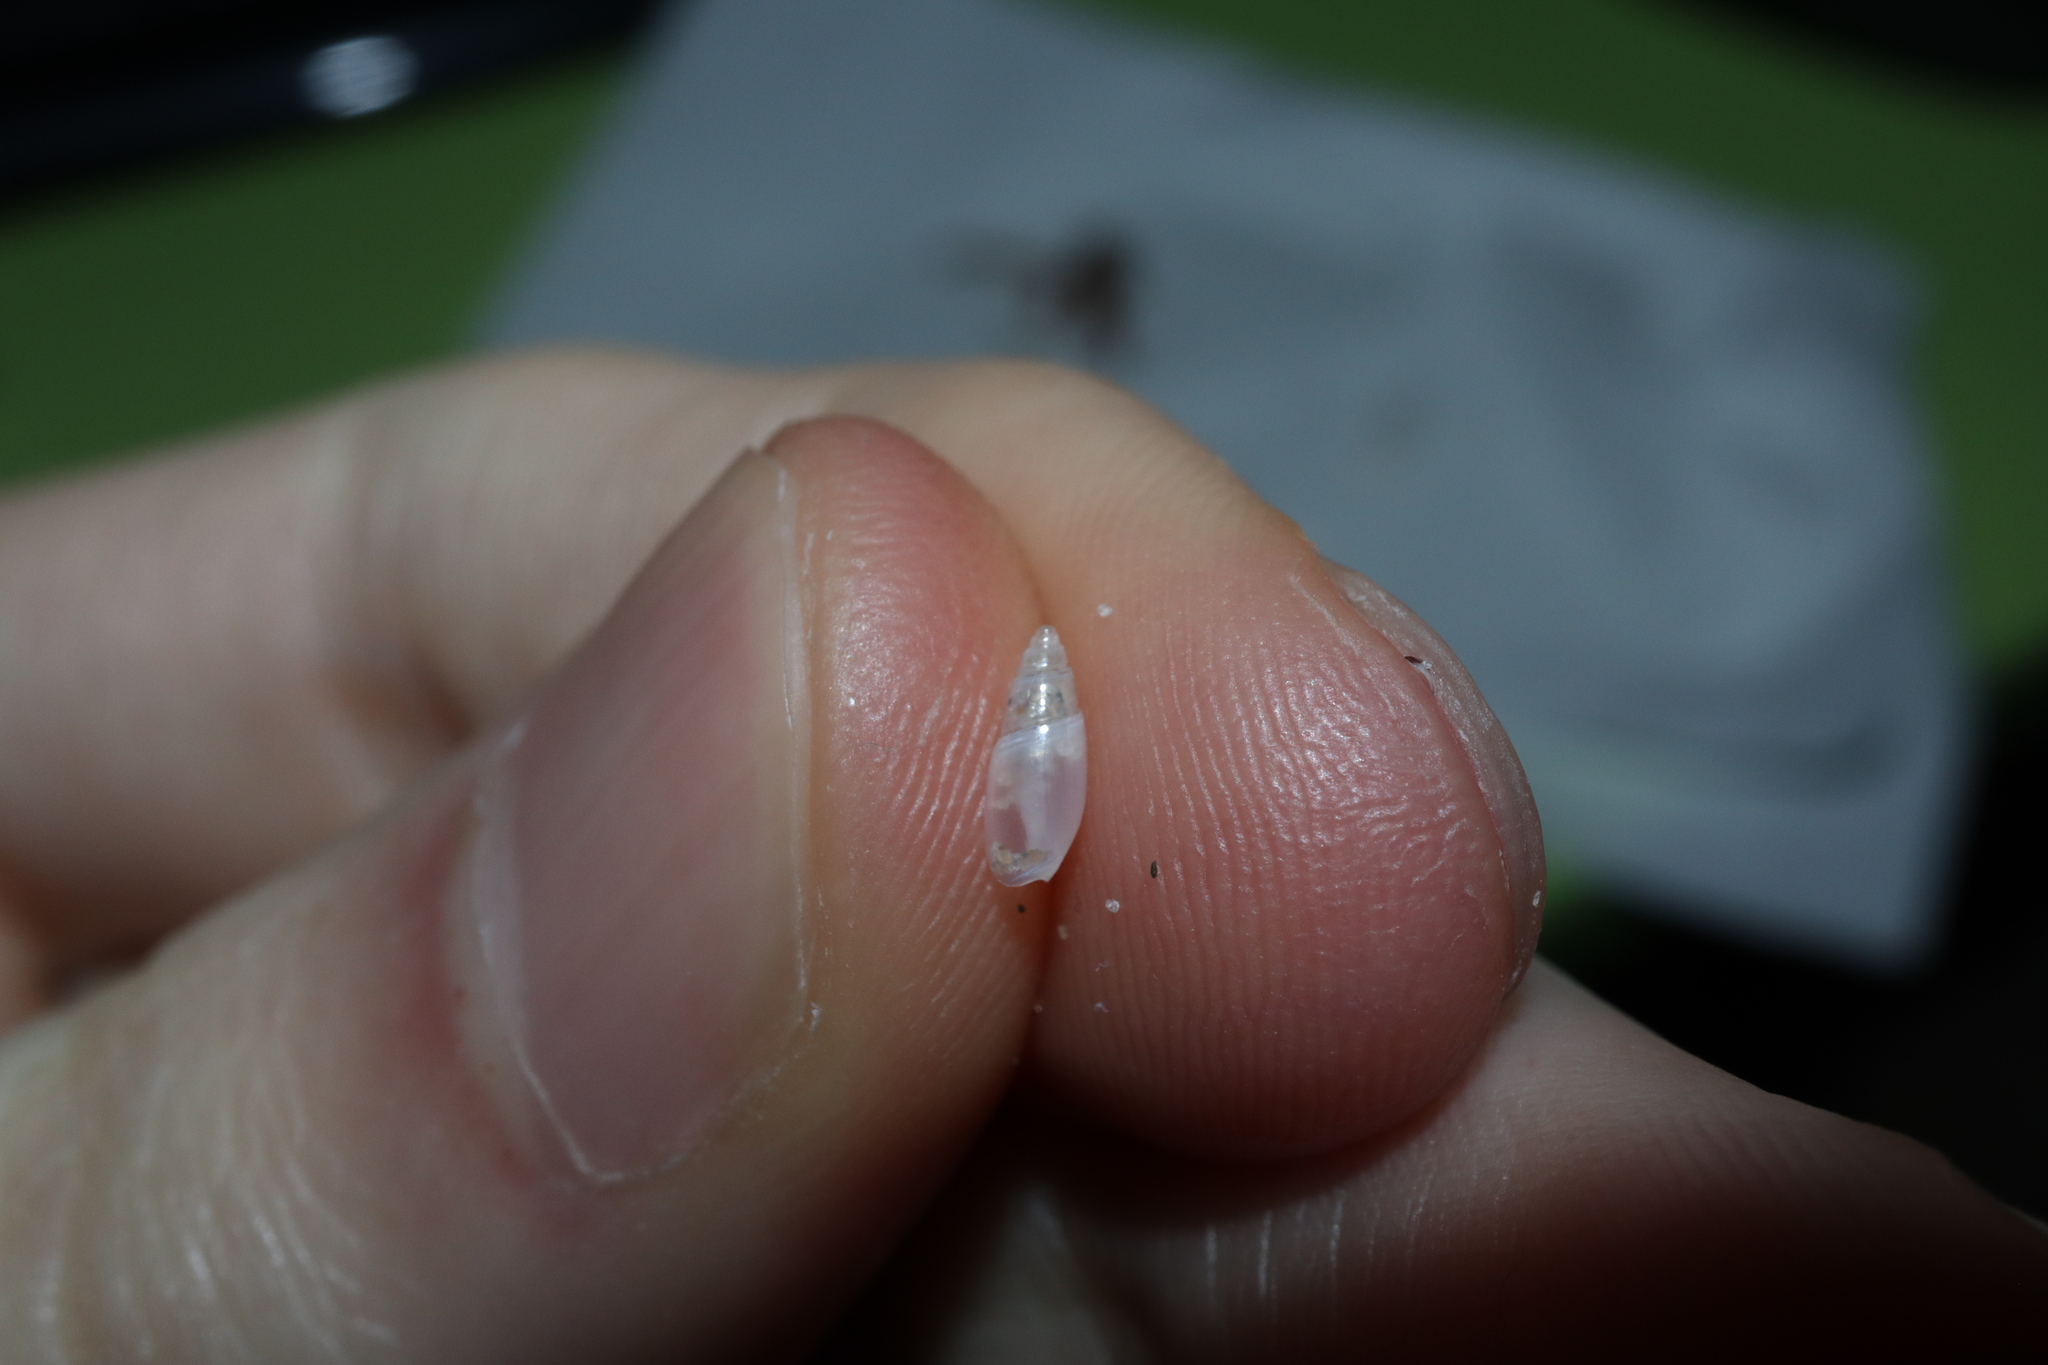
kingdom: Animalia
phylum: Mollusca
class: Gastropoda
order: Neogastropoda
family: Olividae
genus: Cupidoliva
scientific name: Cupidoliva nympha
